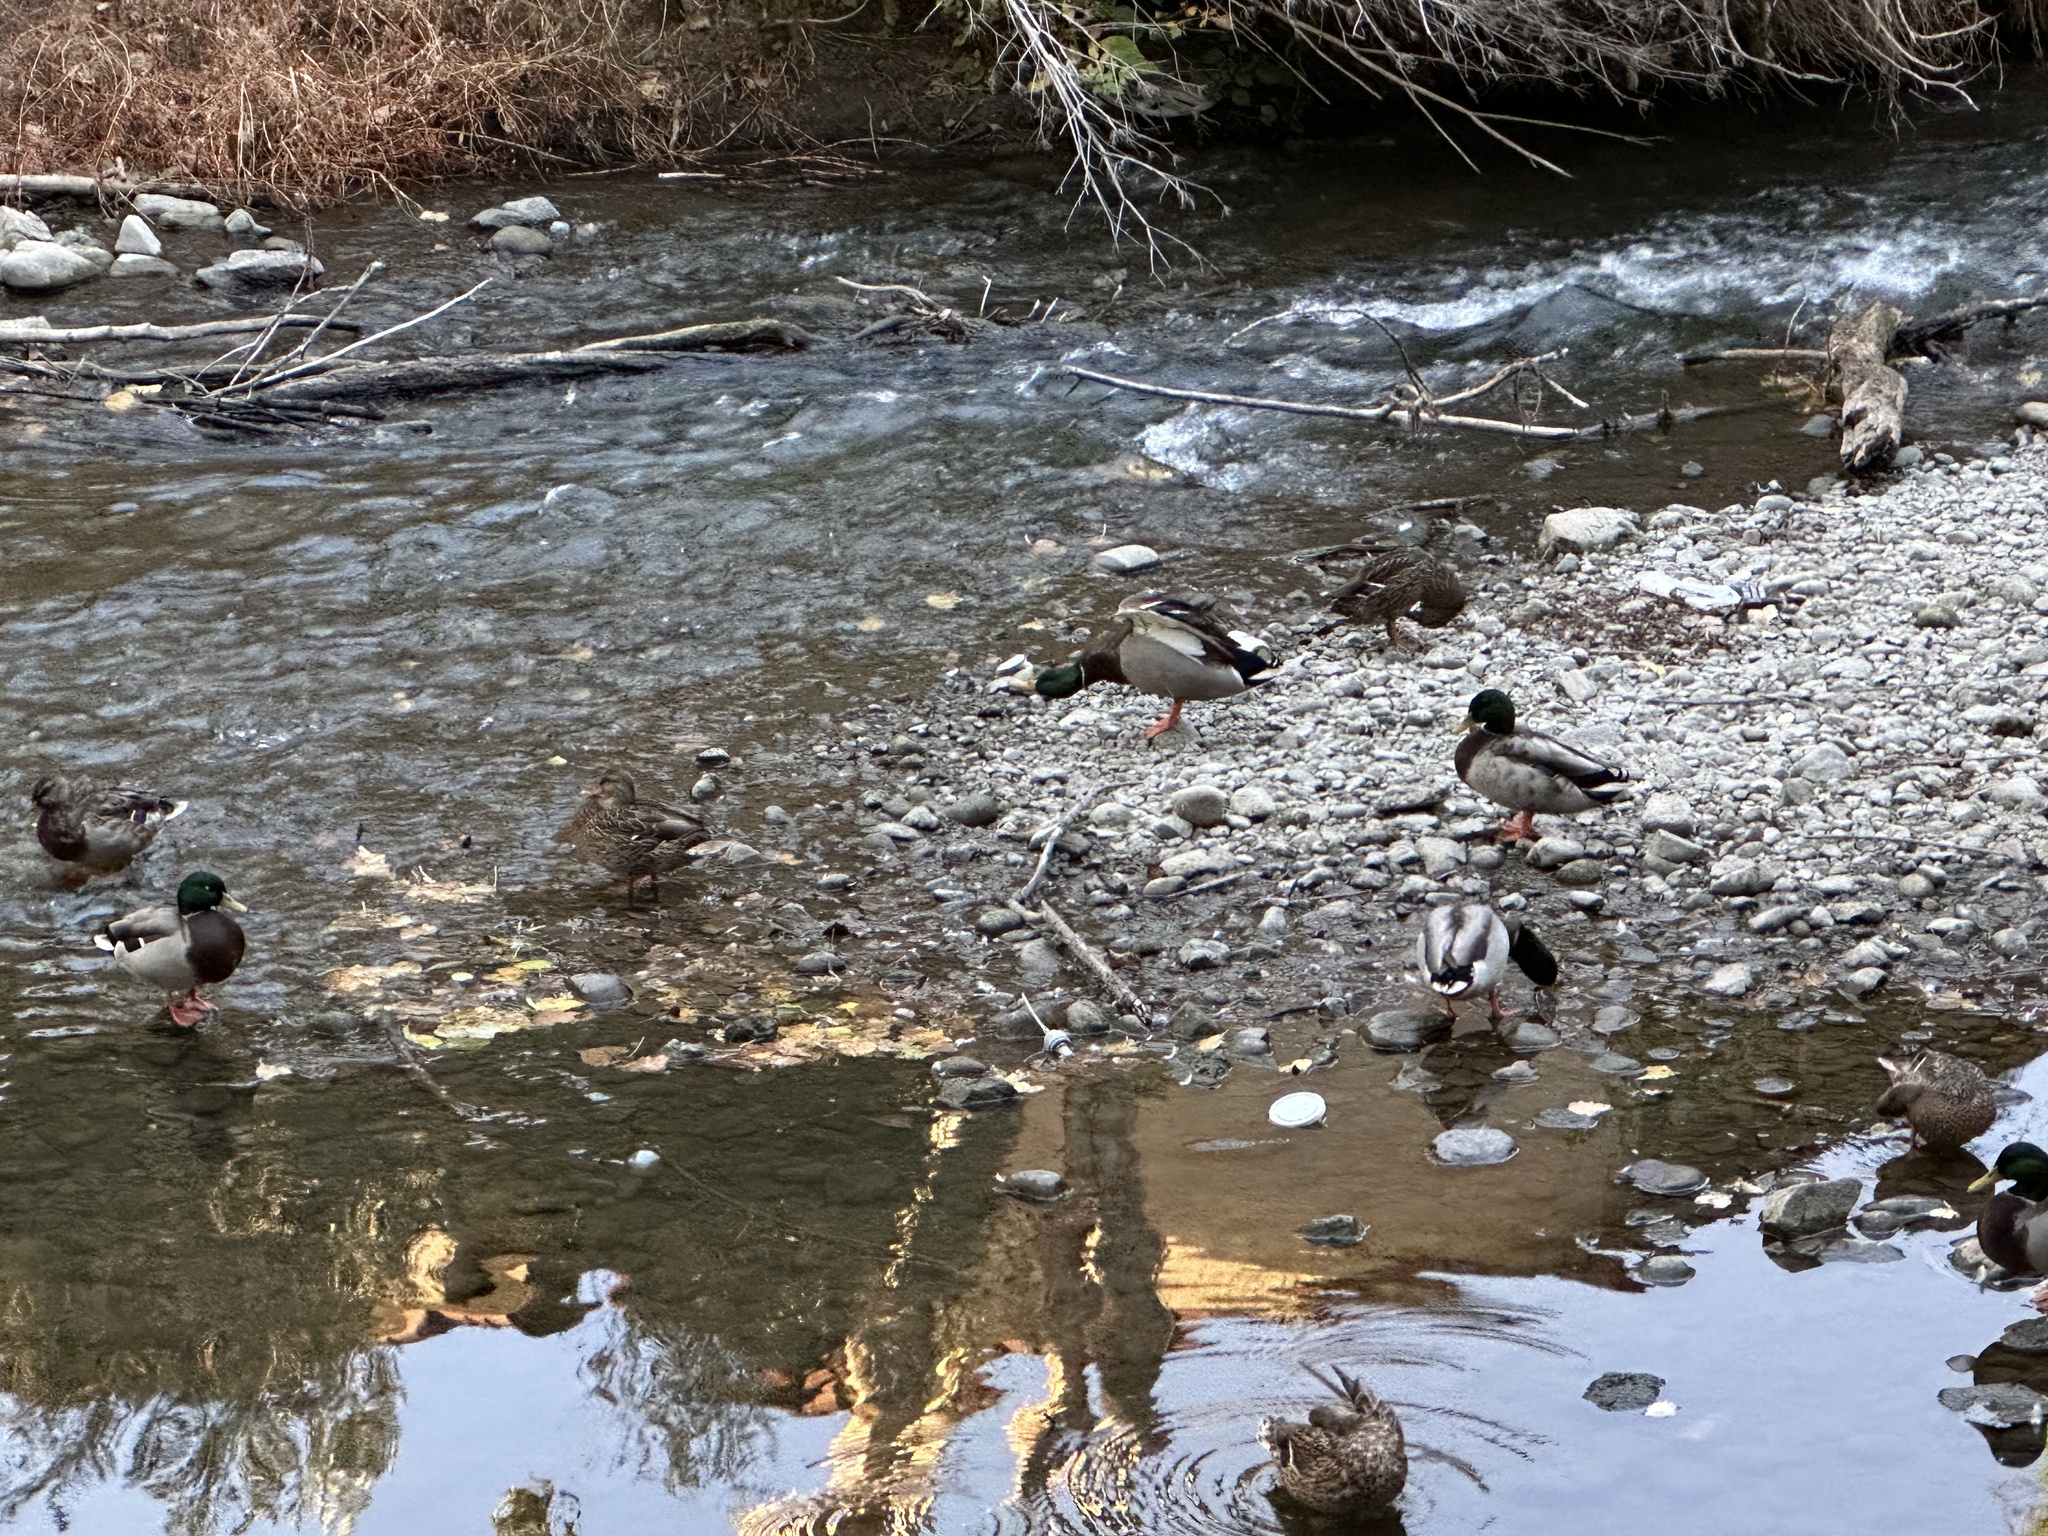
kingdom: Animalia
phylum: Chordata
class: Aves
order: Anseriformes
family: Anatidae
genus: Anas
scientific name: Anas platyrhynchos
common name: Mallard
